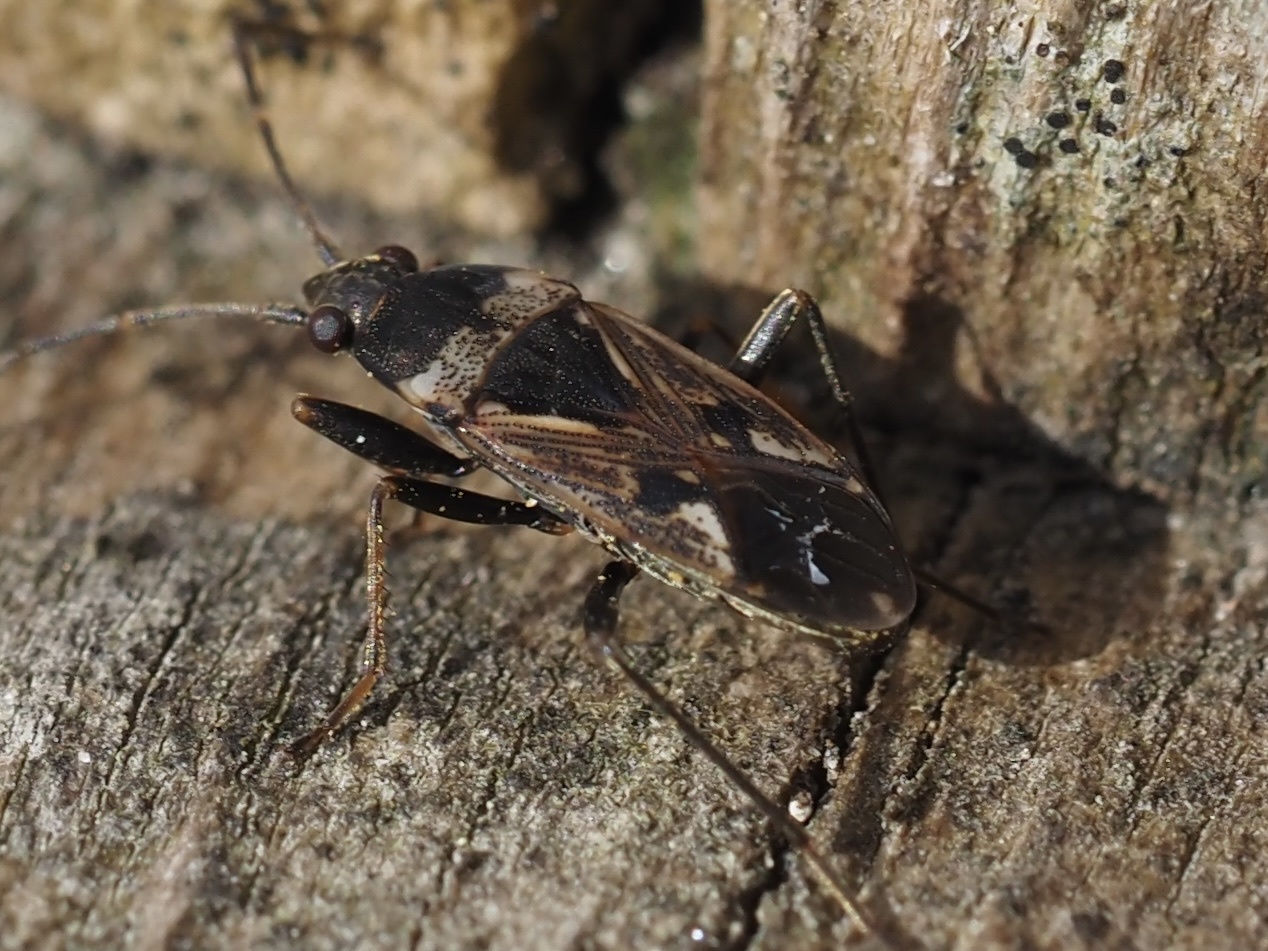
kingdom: Animalia
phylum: Arthropoda
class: Insecta
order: Hemiptera
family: Rhyparochromidae
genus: Rhyparochromus
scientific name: Rhyparochromus vulgaris
